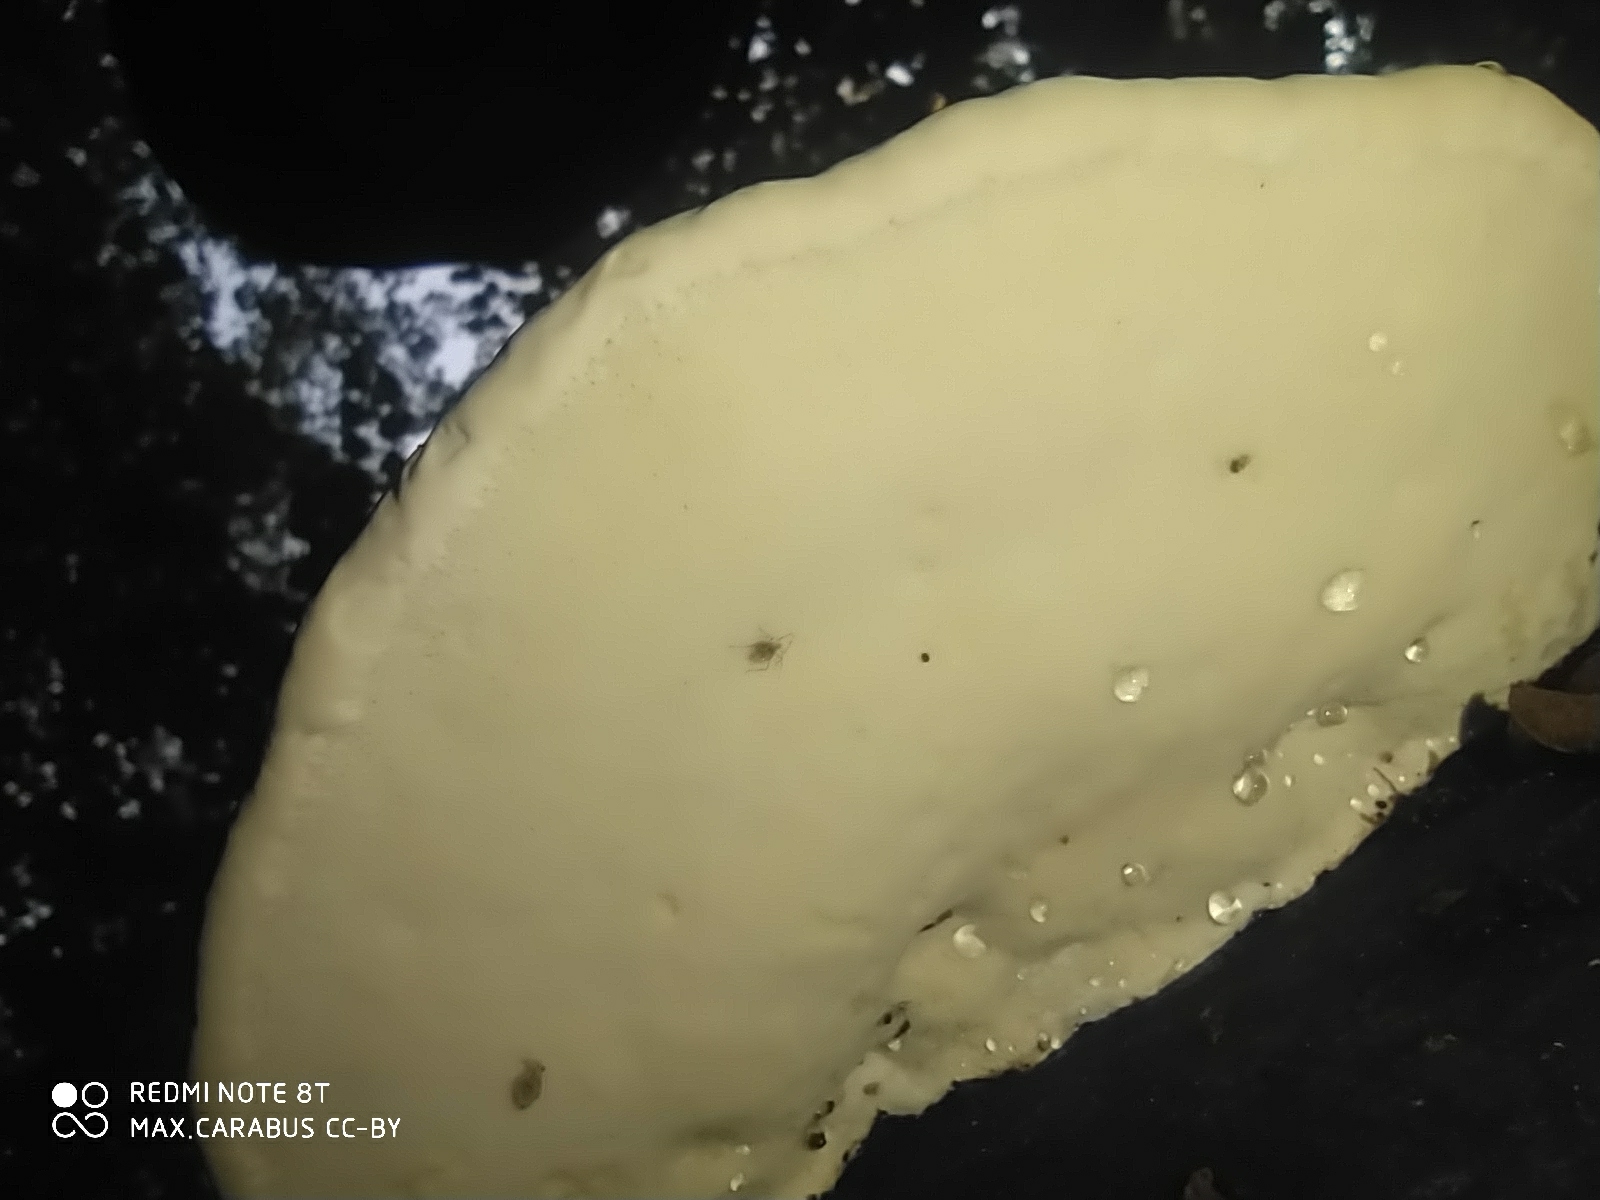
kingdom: Fungi
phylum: Basidiomycota
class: Agaricomycetes
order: Polyporales
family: Fomitopsidaceae
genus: Fomitopsis
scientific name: Fomitopsis pinicola
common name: Red-belted bracket
